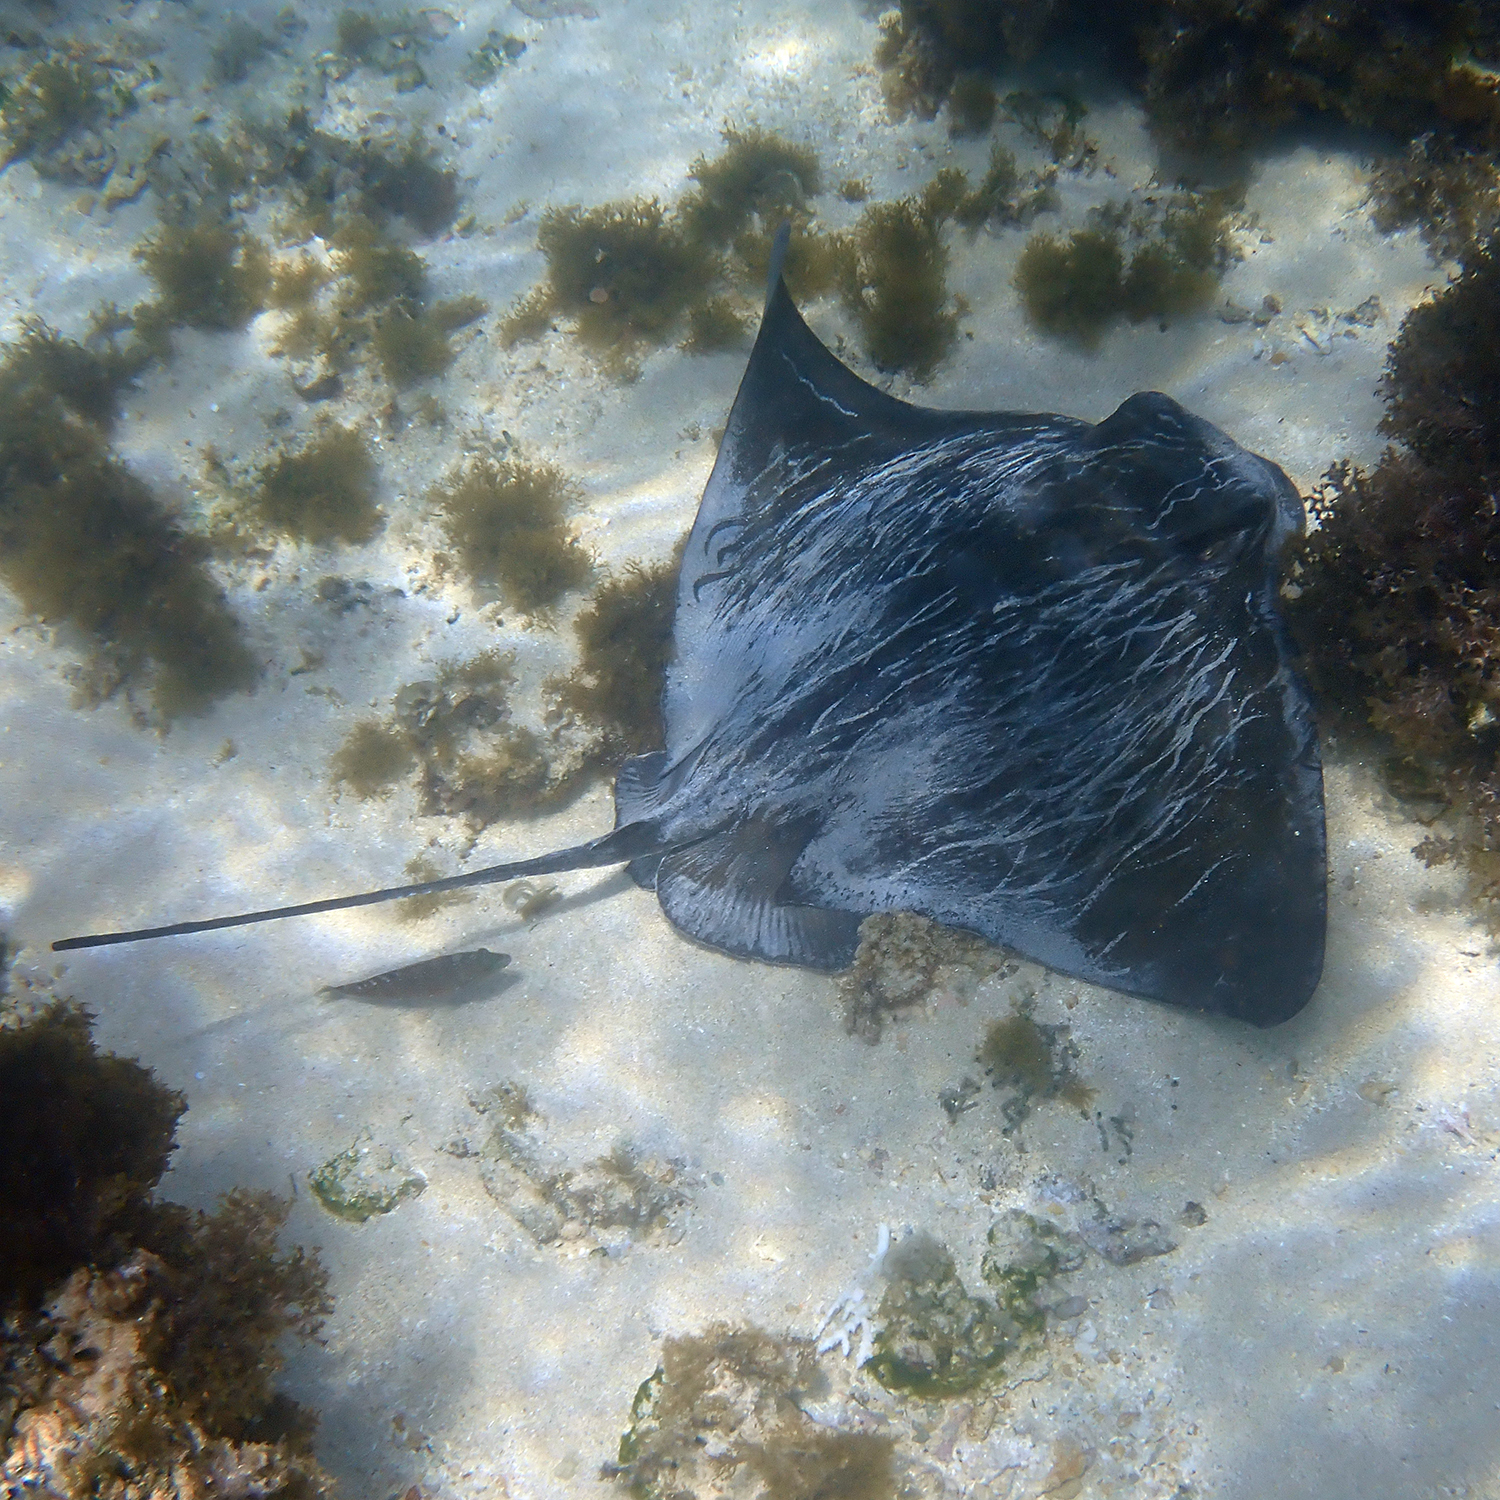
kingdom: Animalia
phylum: Chordata
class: Elasmobranchii
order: Myliobatiformes
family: Myliobatidae
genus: Myliobatis
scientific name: Myliobatis tenuicaudatus
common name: Eagle ray
